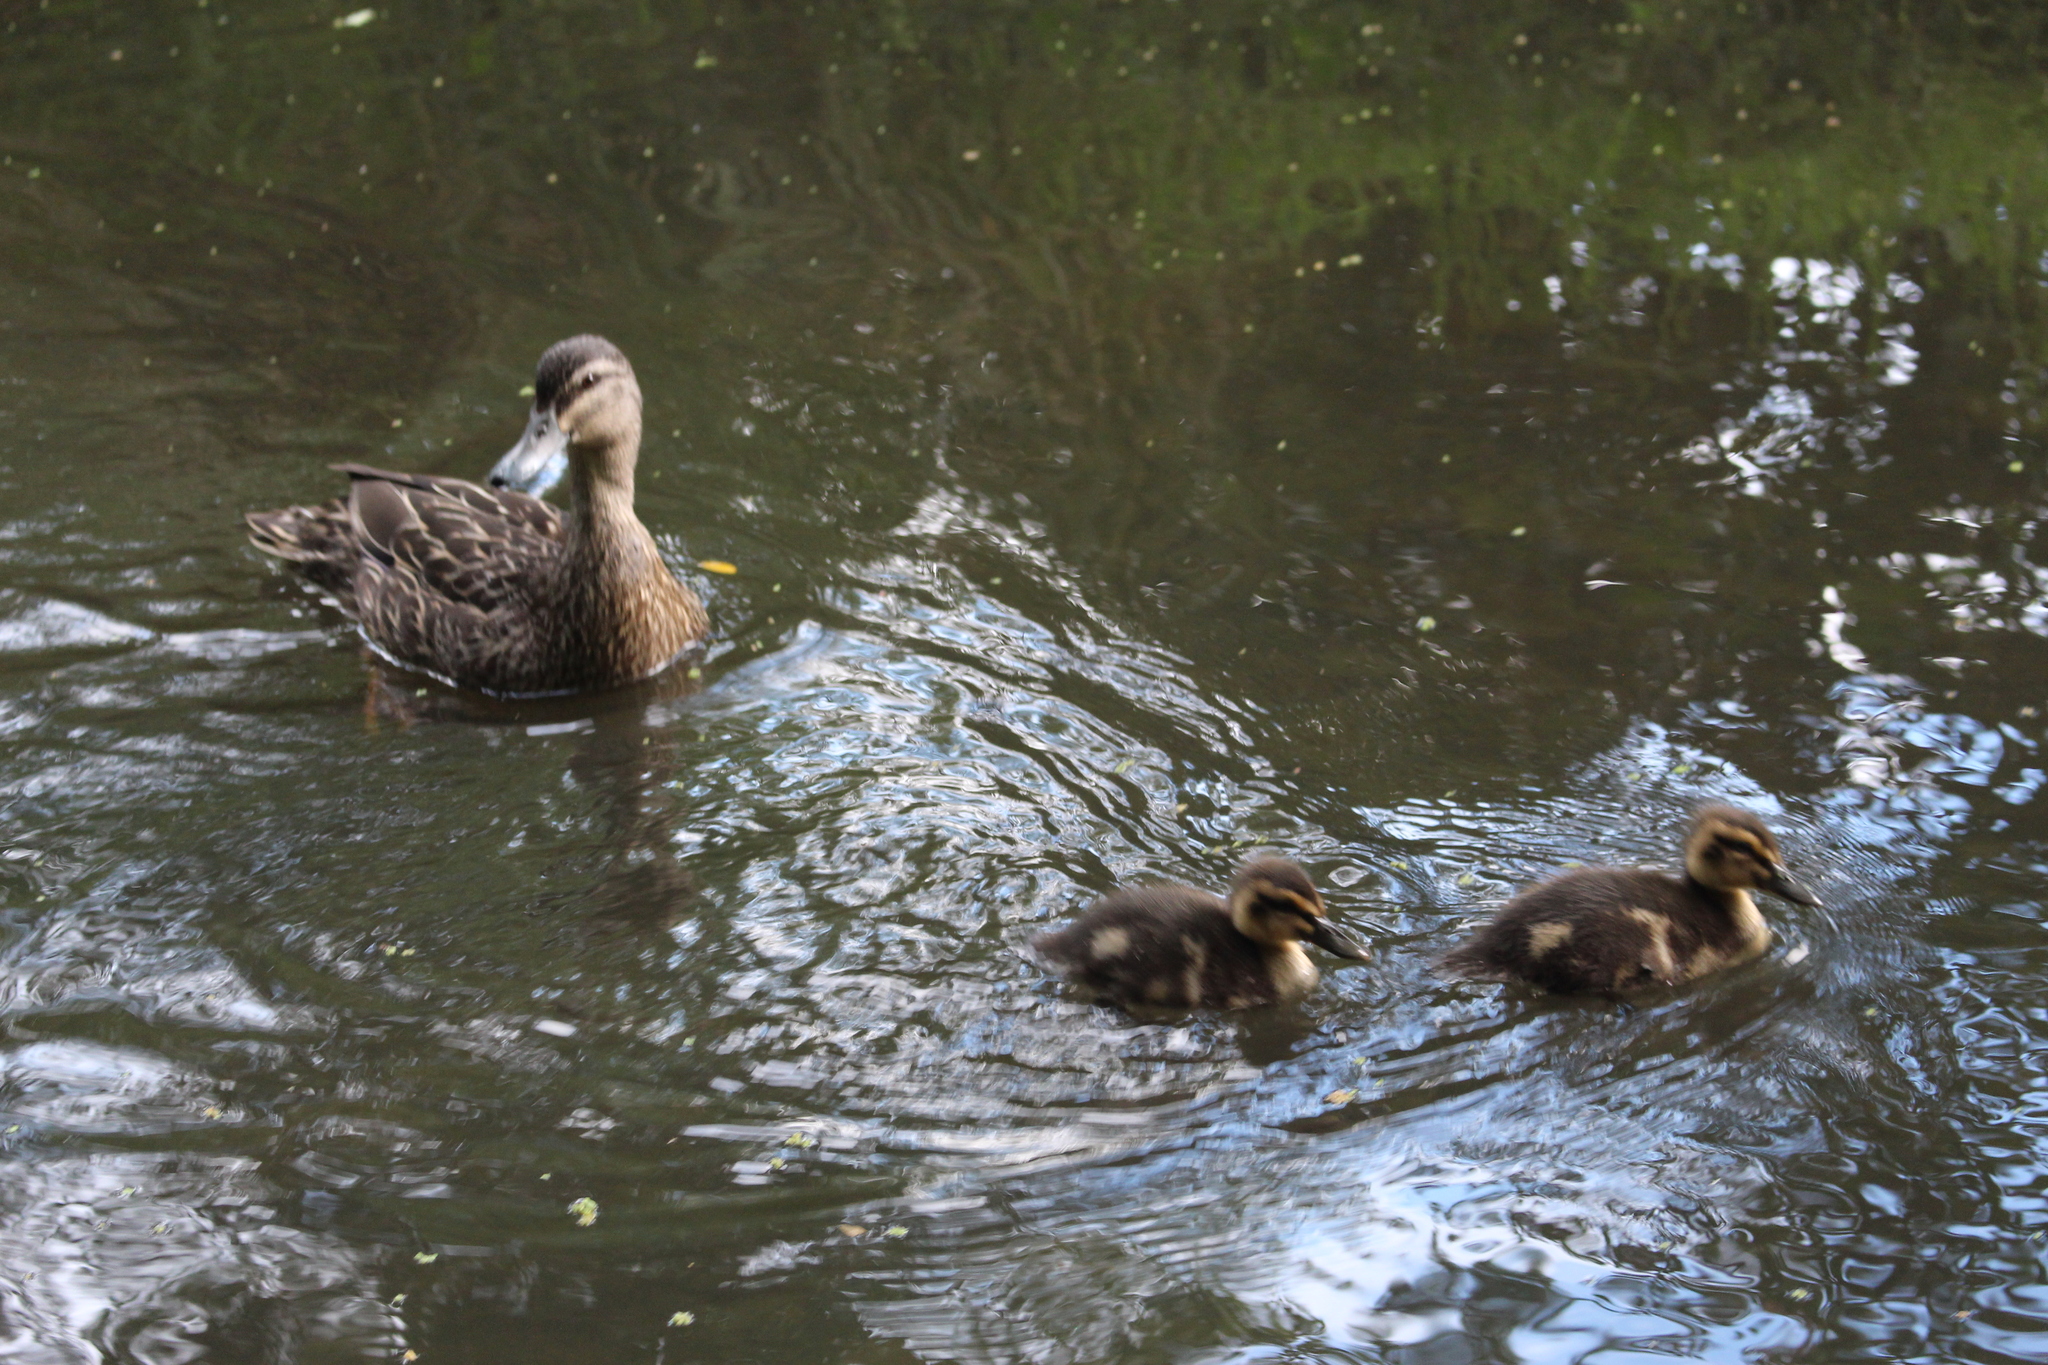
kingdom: Animalia
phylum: Chordata
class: Aves
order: Anseriformes
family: Anatidae
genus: Anas
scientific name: Anas
